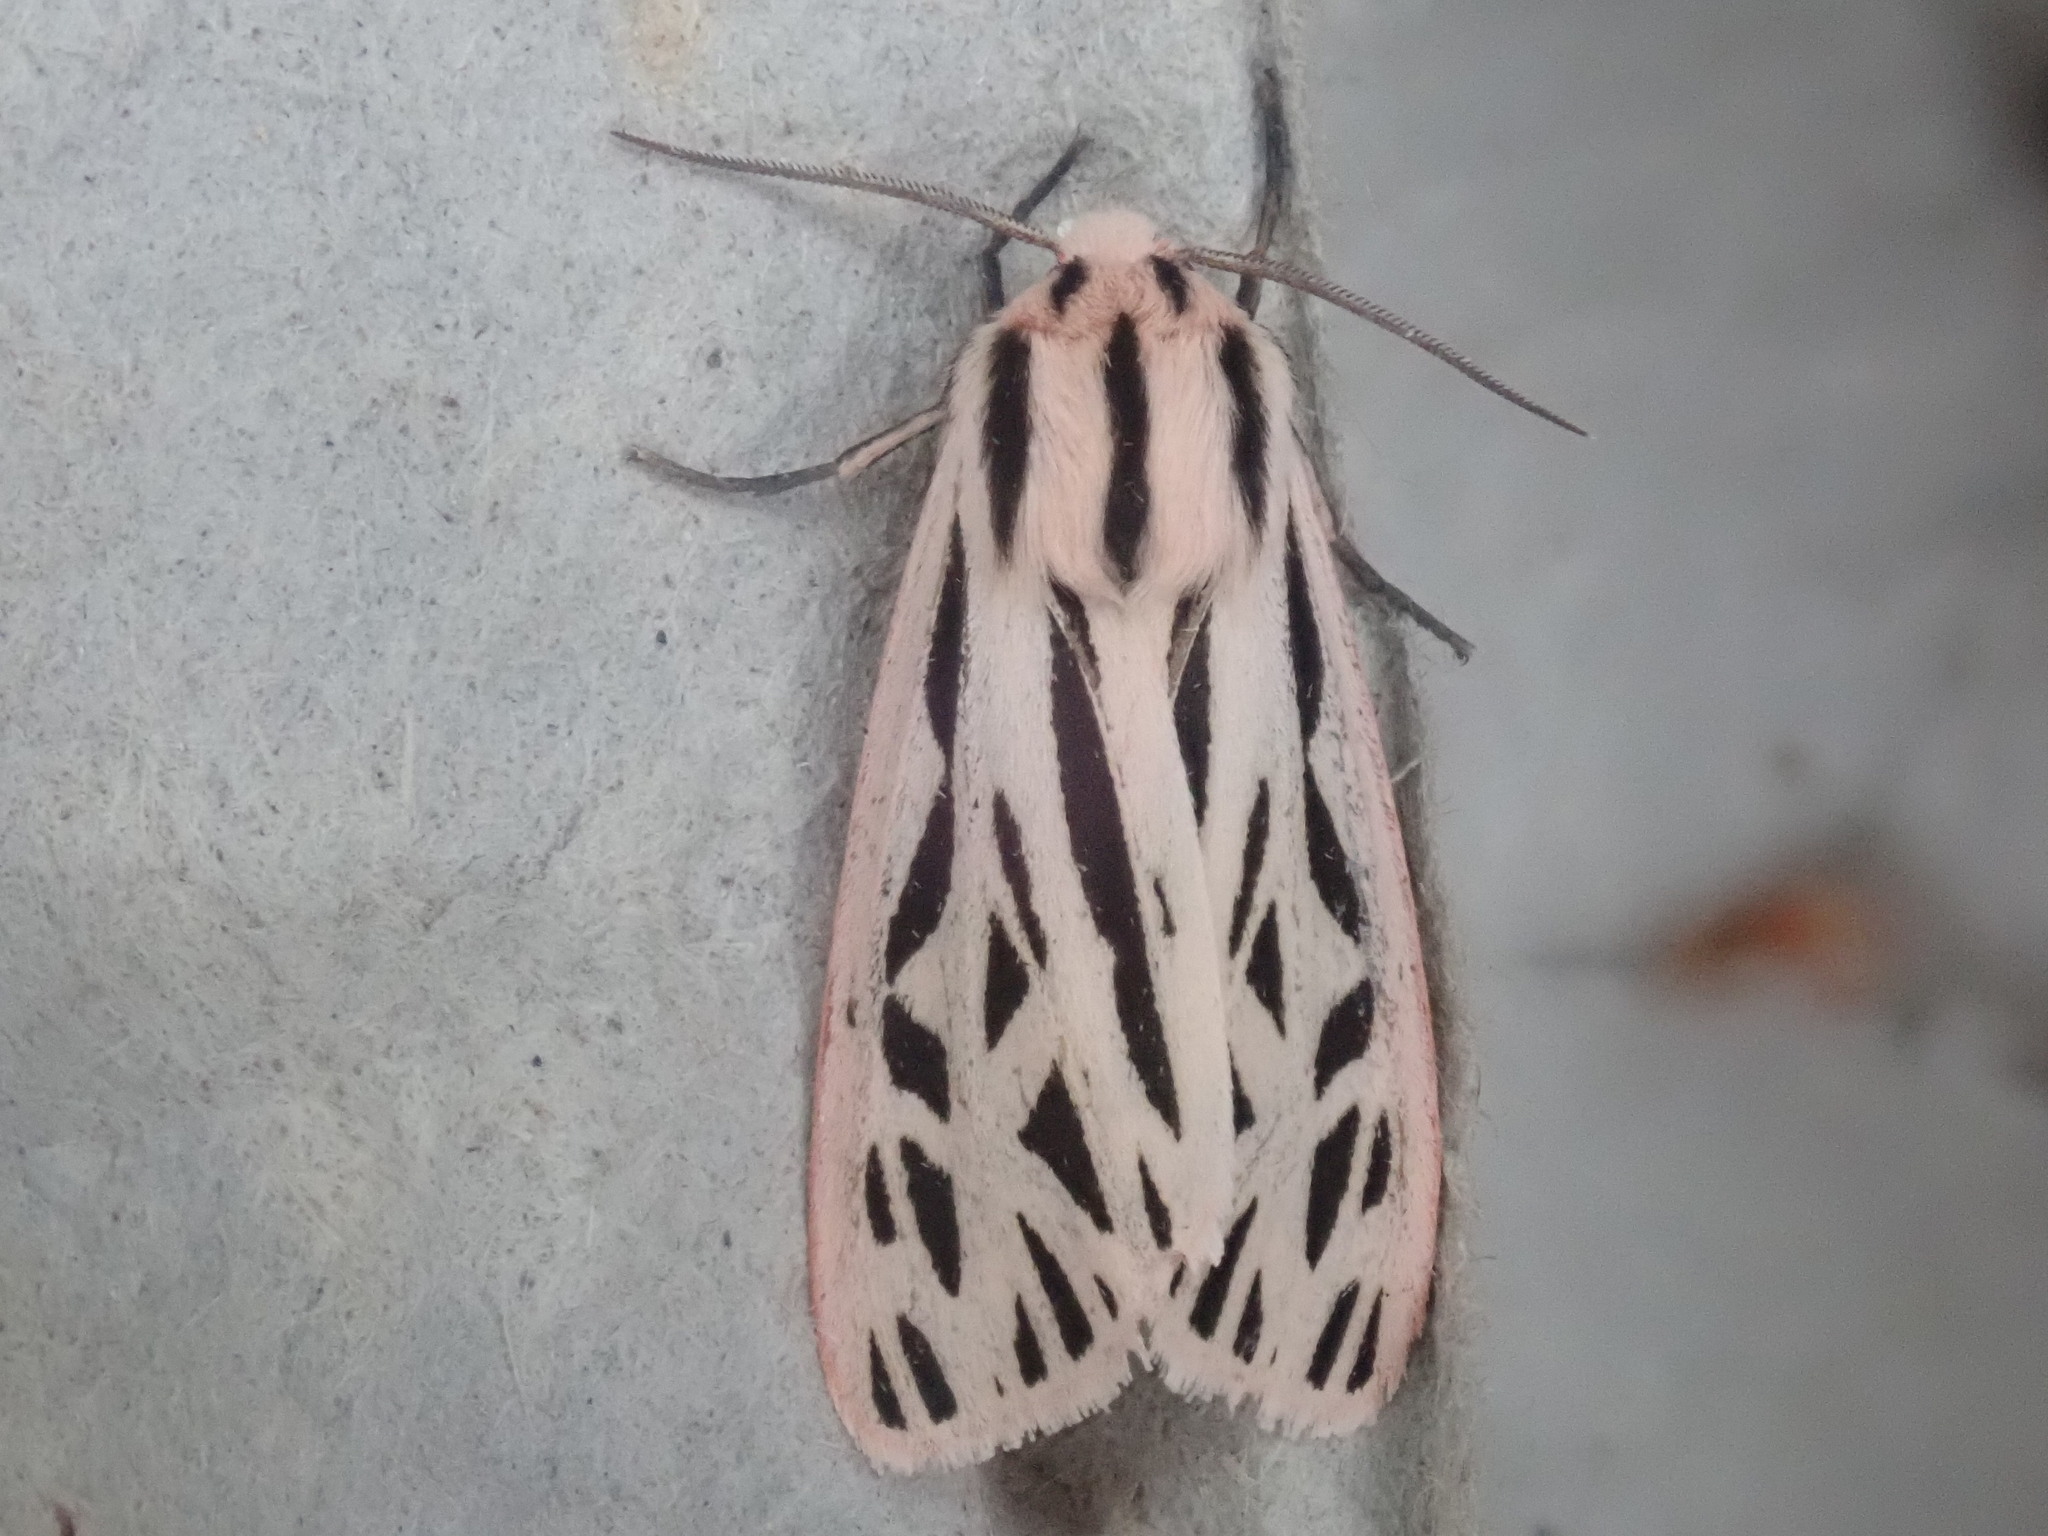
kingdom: Animalia
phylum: Arthropoda
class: Insecta
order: Lepidoptera
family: Erebidae
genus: Apantesis
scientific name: Apantesis arge
